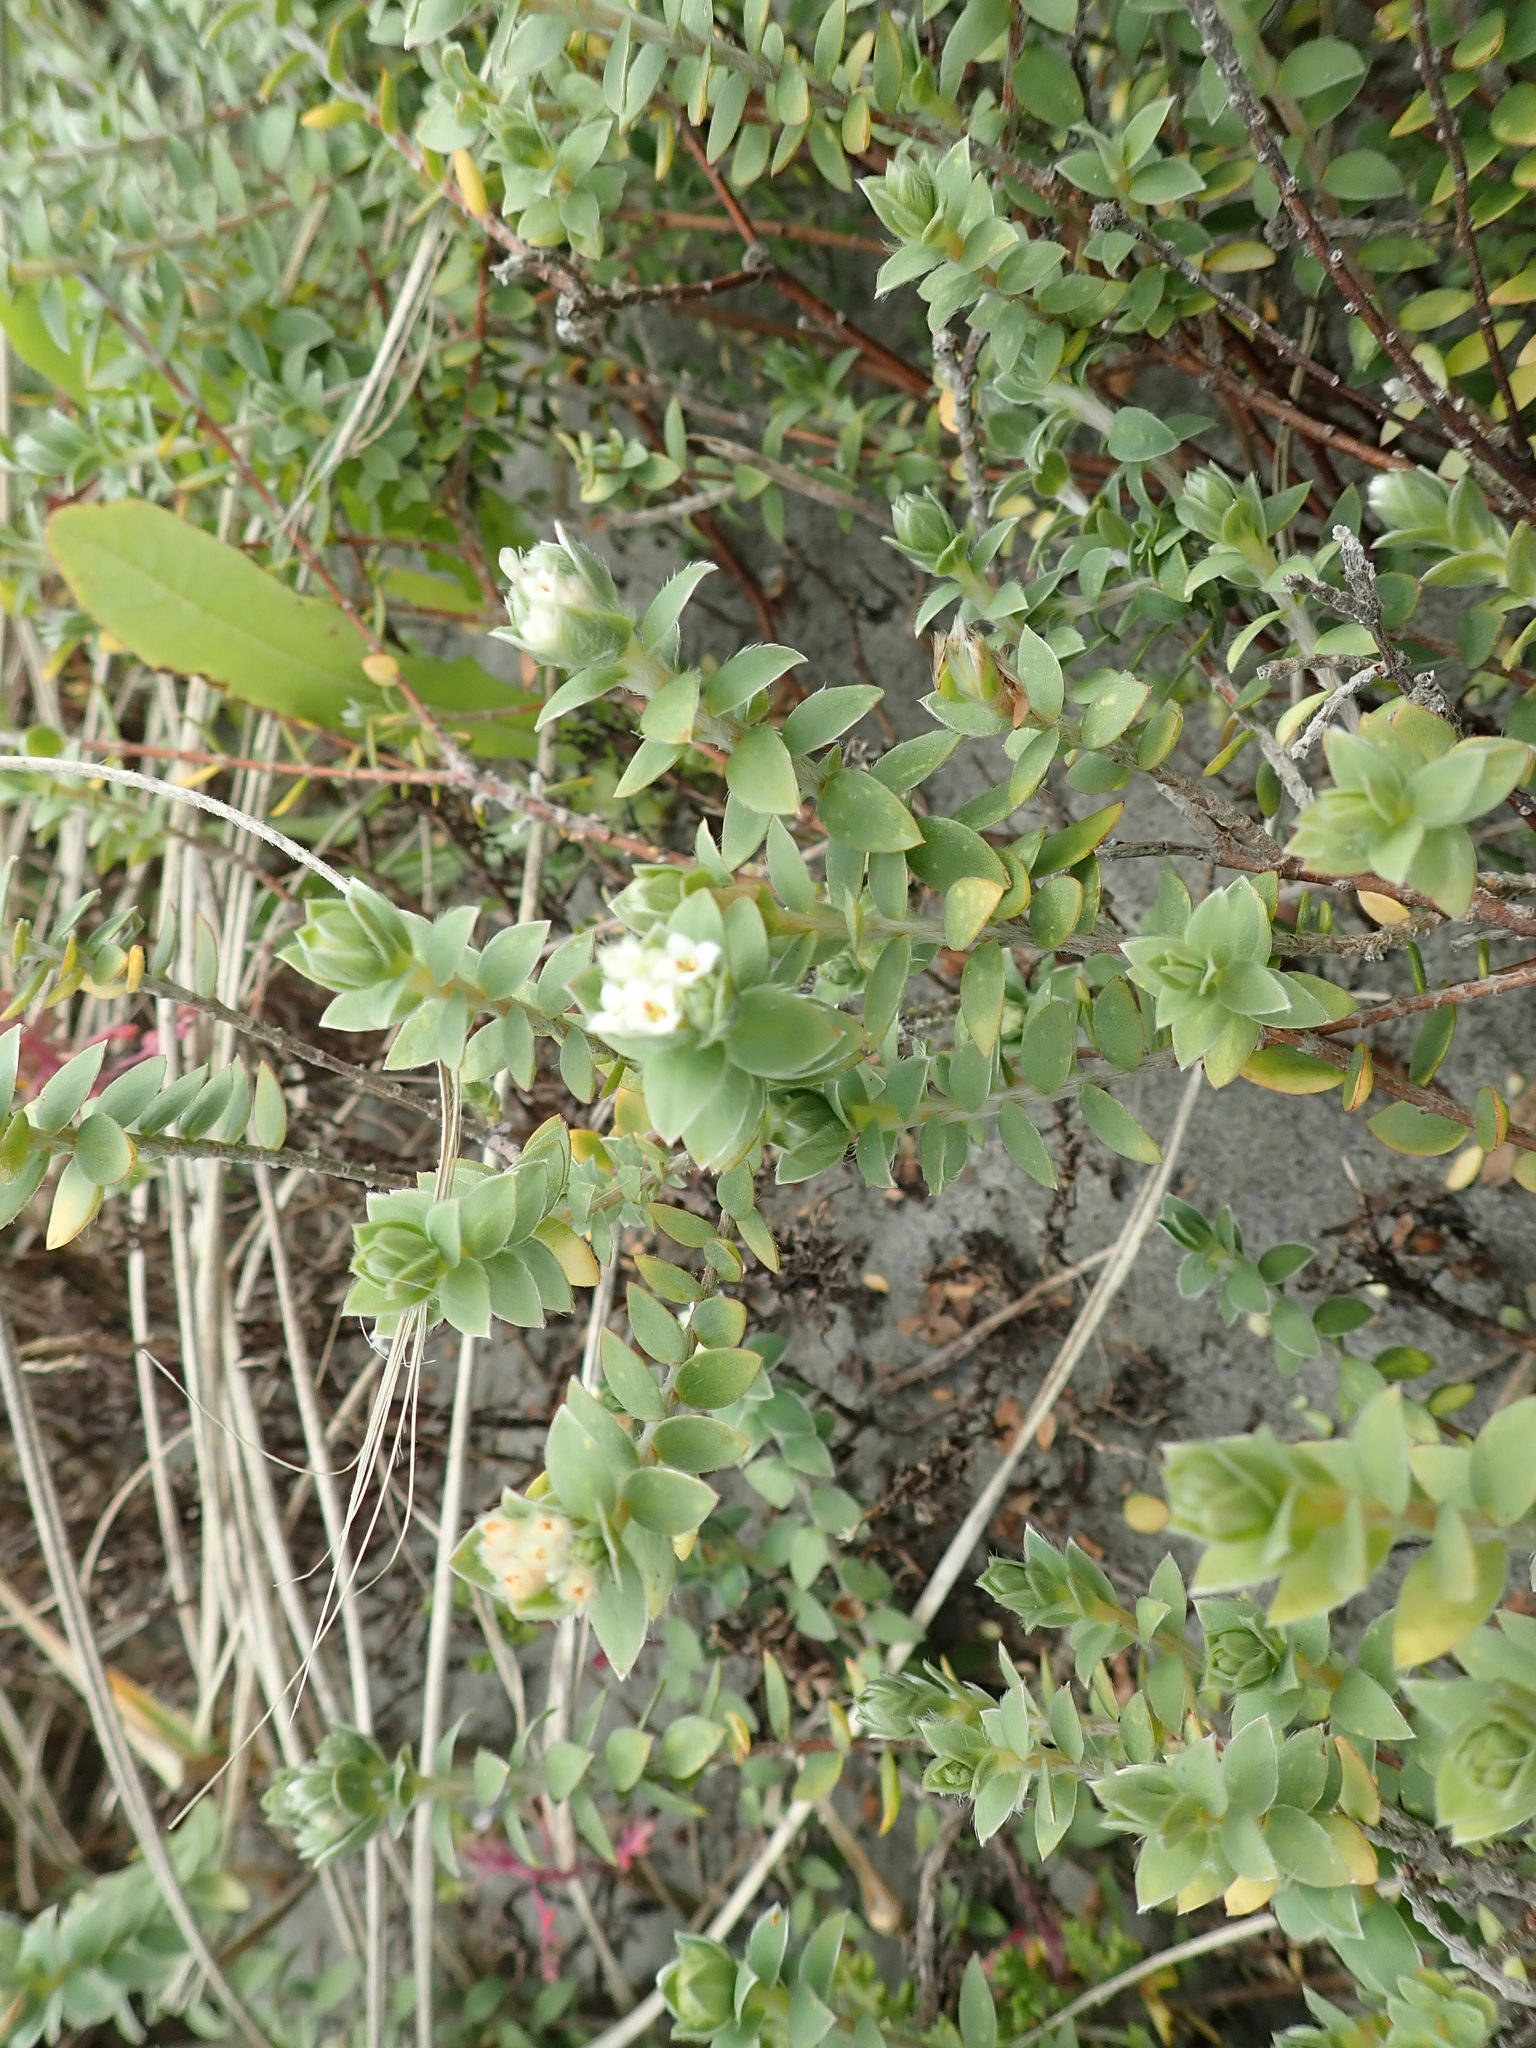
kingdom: Plantae
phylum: Tracheophyta
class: Magnoliopsida
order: Malvales
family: Thymelaeaceae
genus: Pimelea
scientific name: Pimelea villosa
